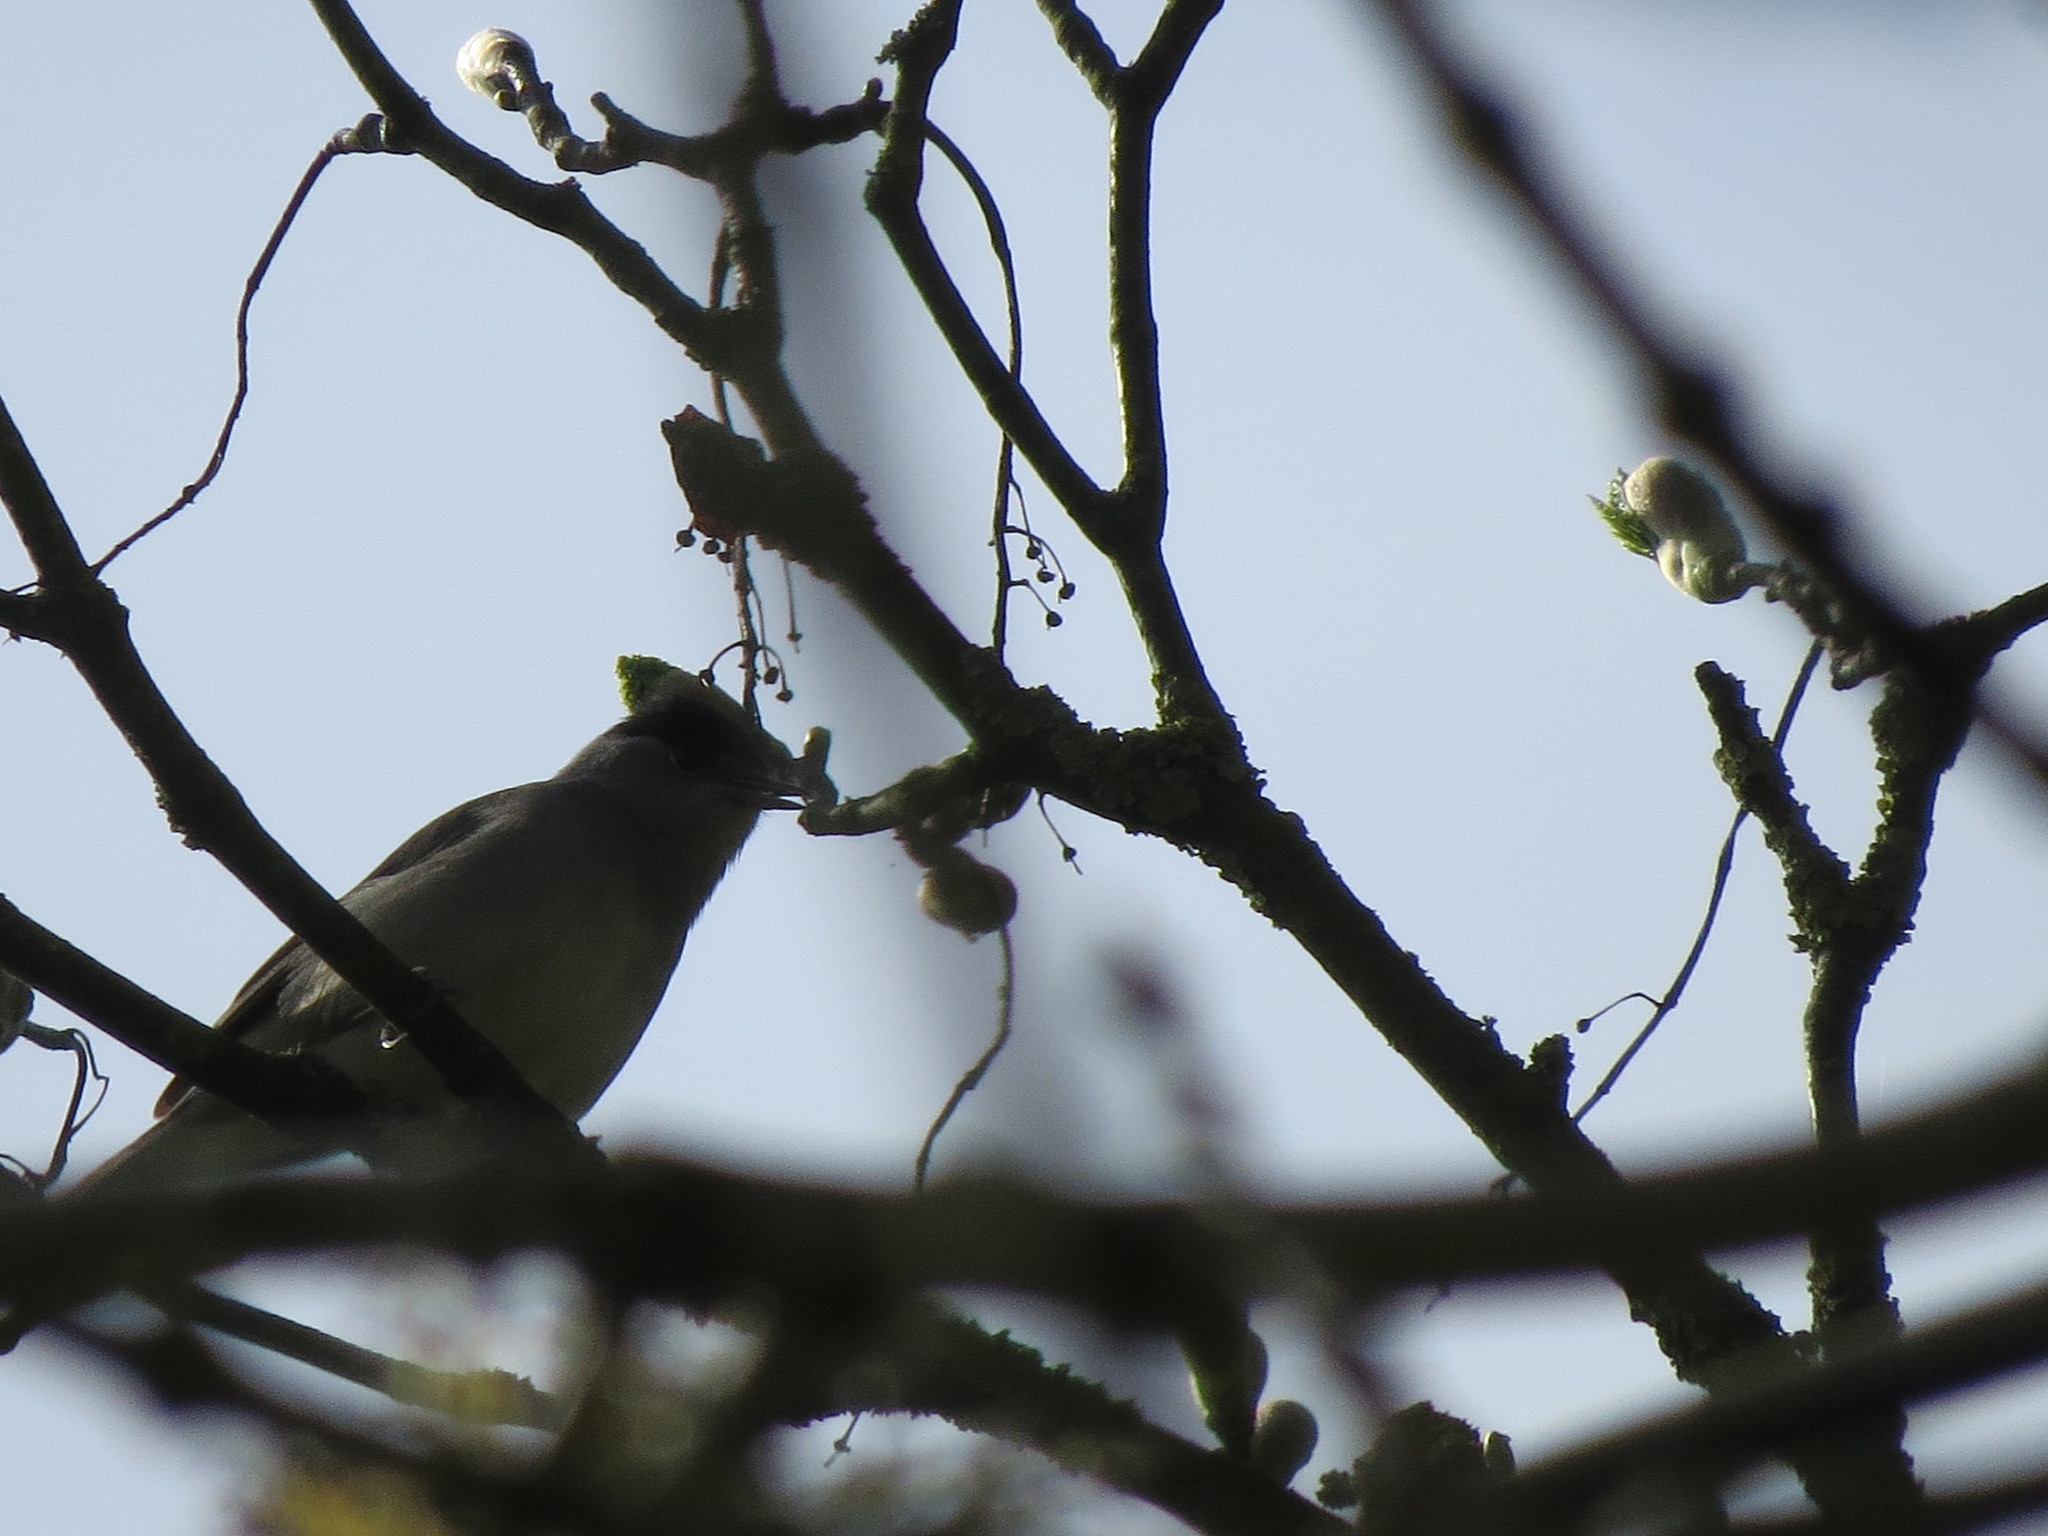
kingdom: Animalia
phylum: Chordata
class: Aves
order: Passeriformes
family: Sylviidae
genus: Sylvia
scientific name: Sylvia atricapilla
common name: Eurasian blackcap
